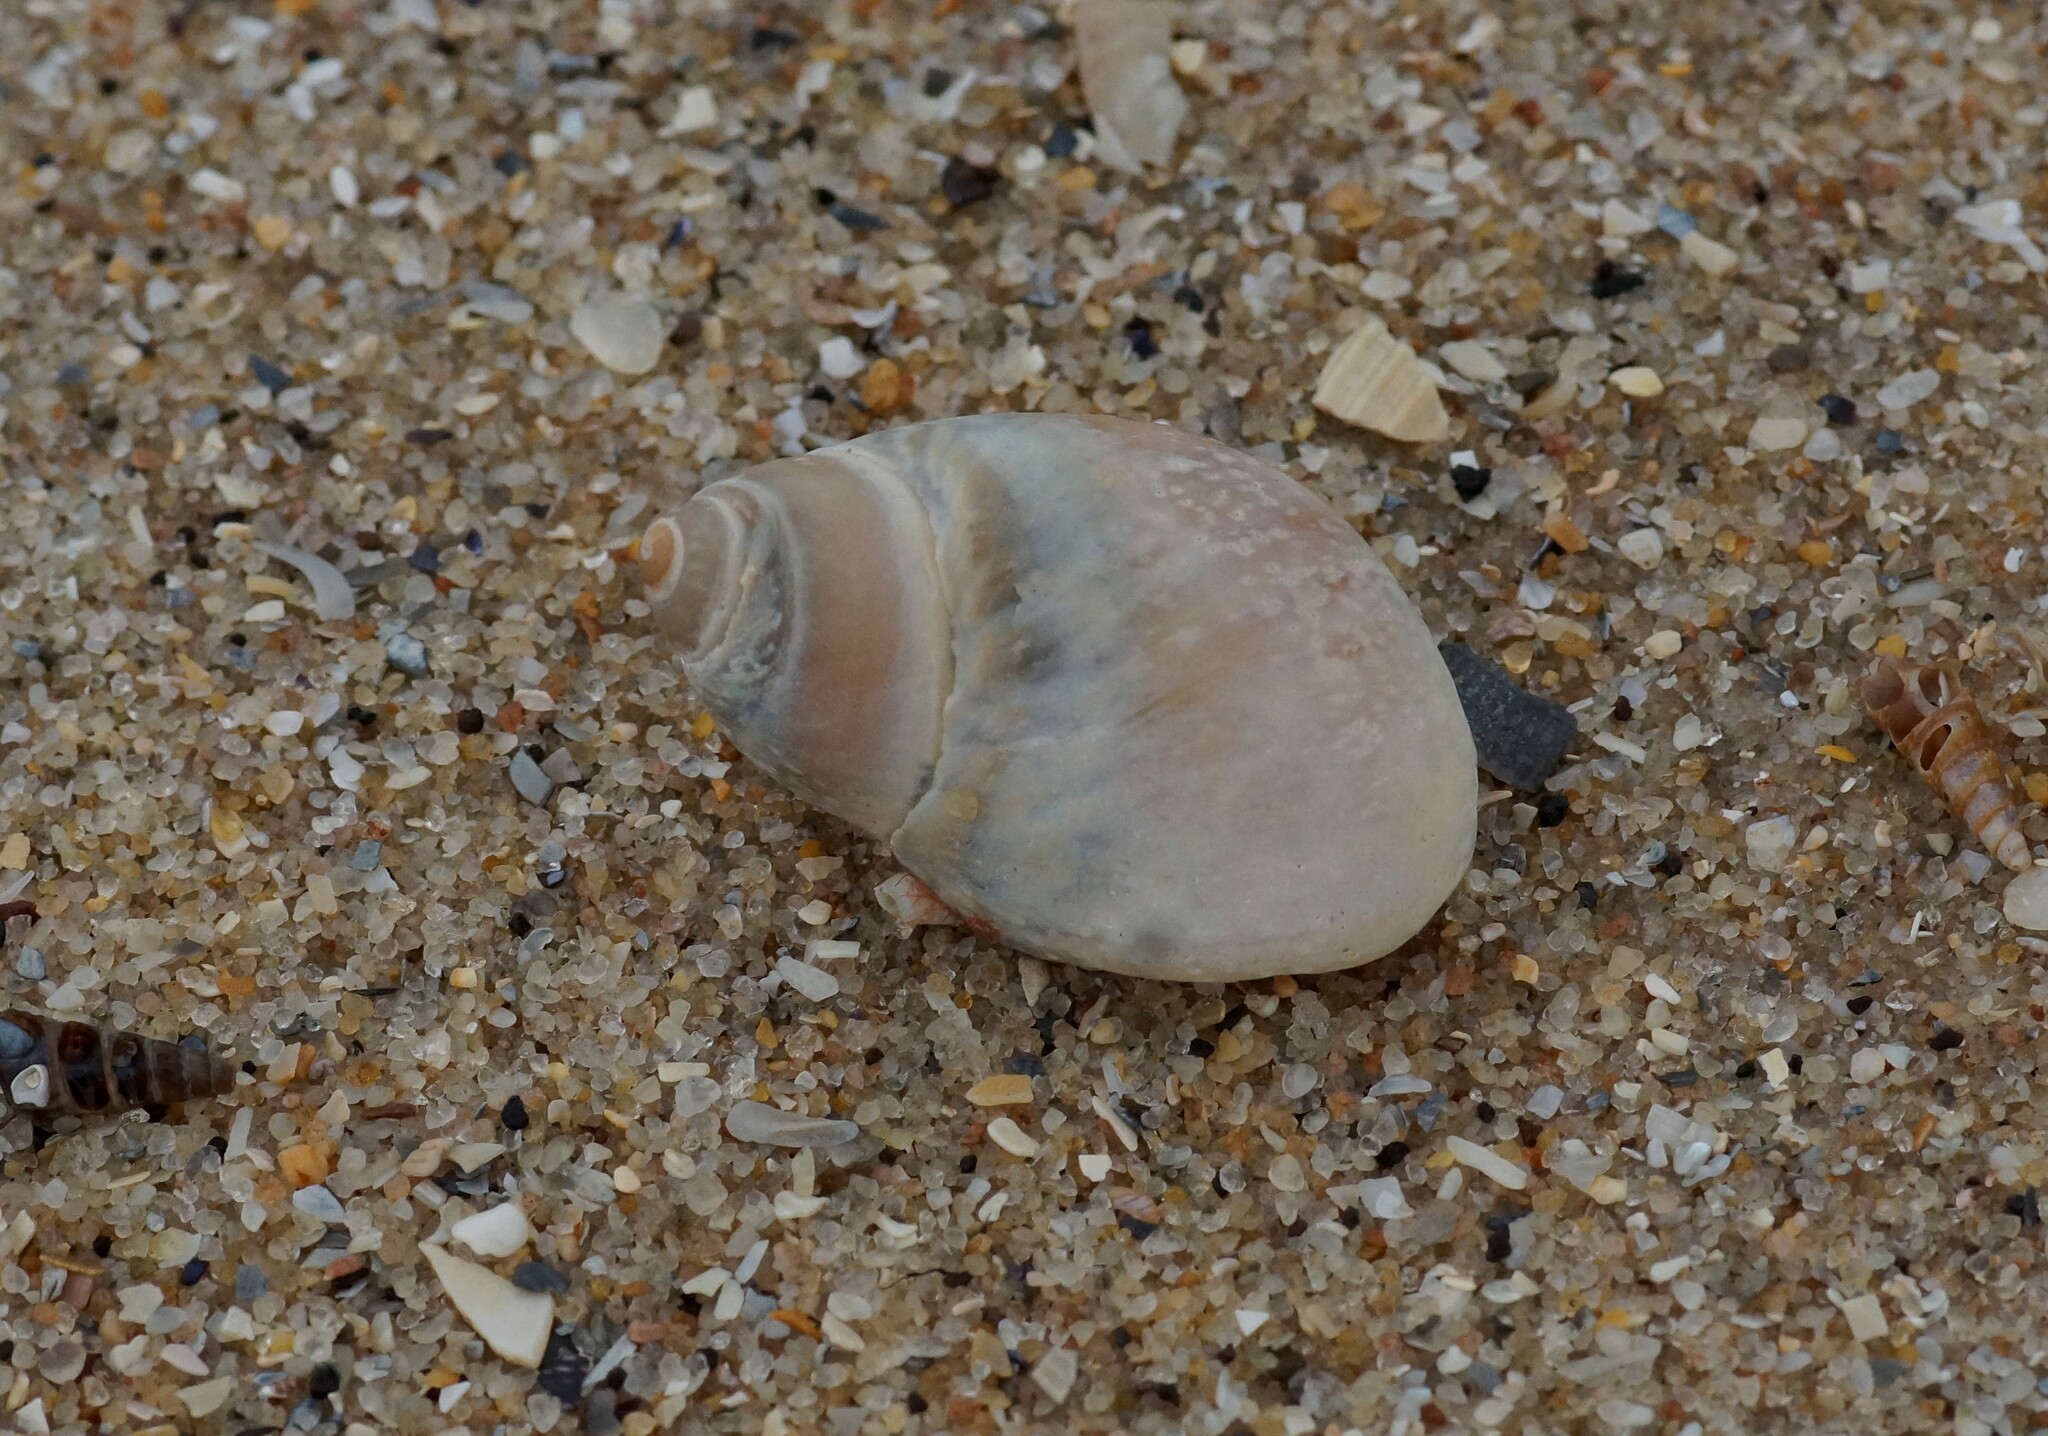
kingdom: Animalia
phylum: Mollusca
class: Gastropoda
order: Littorinimorpha
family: Naticidae
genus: Conuber
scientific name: Conuber conicum
